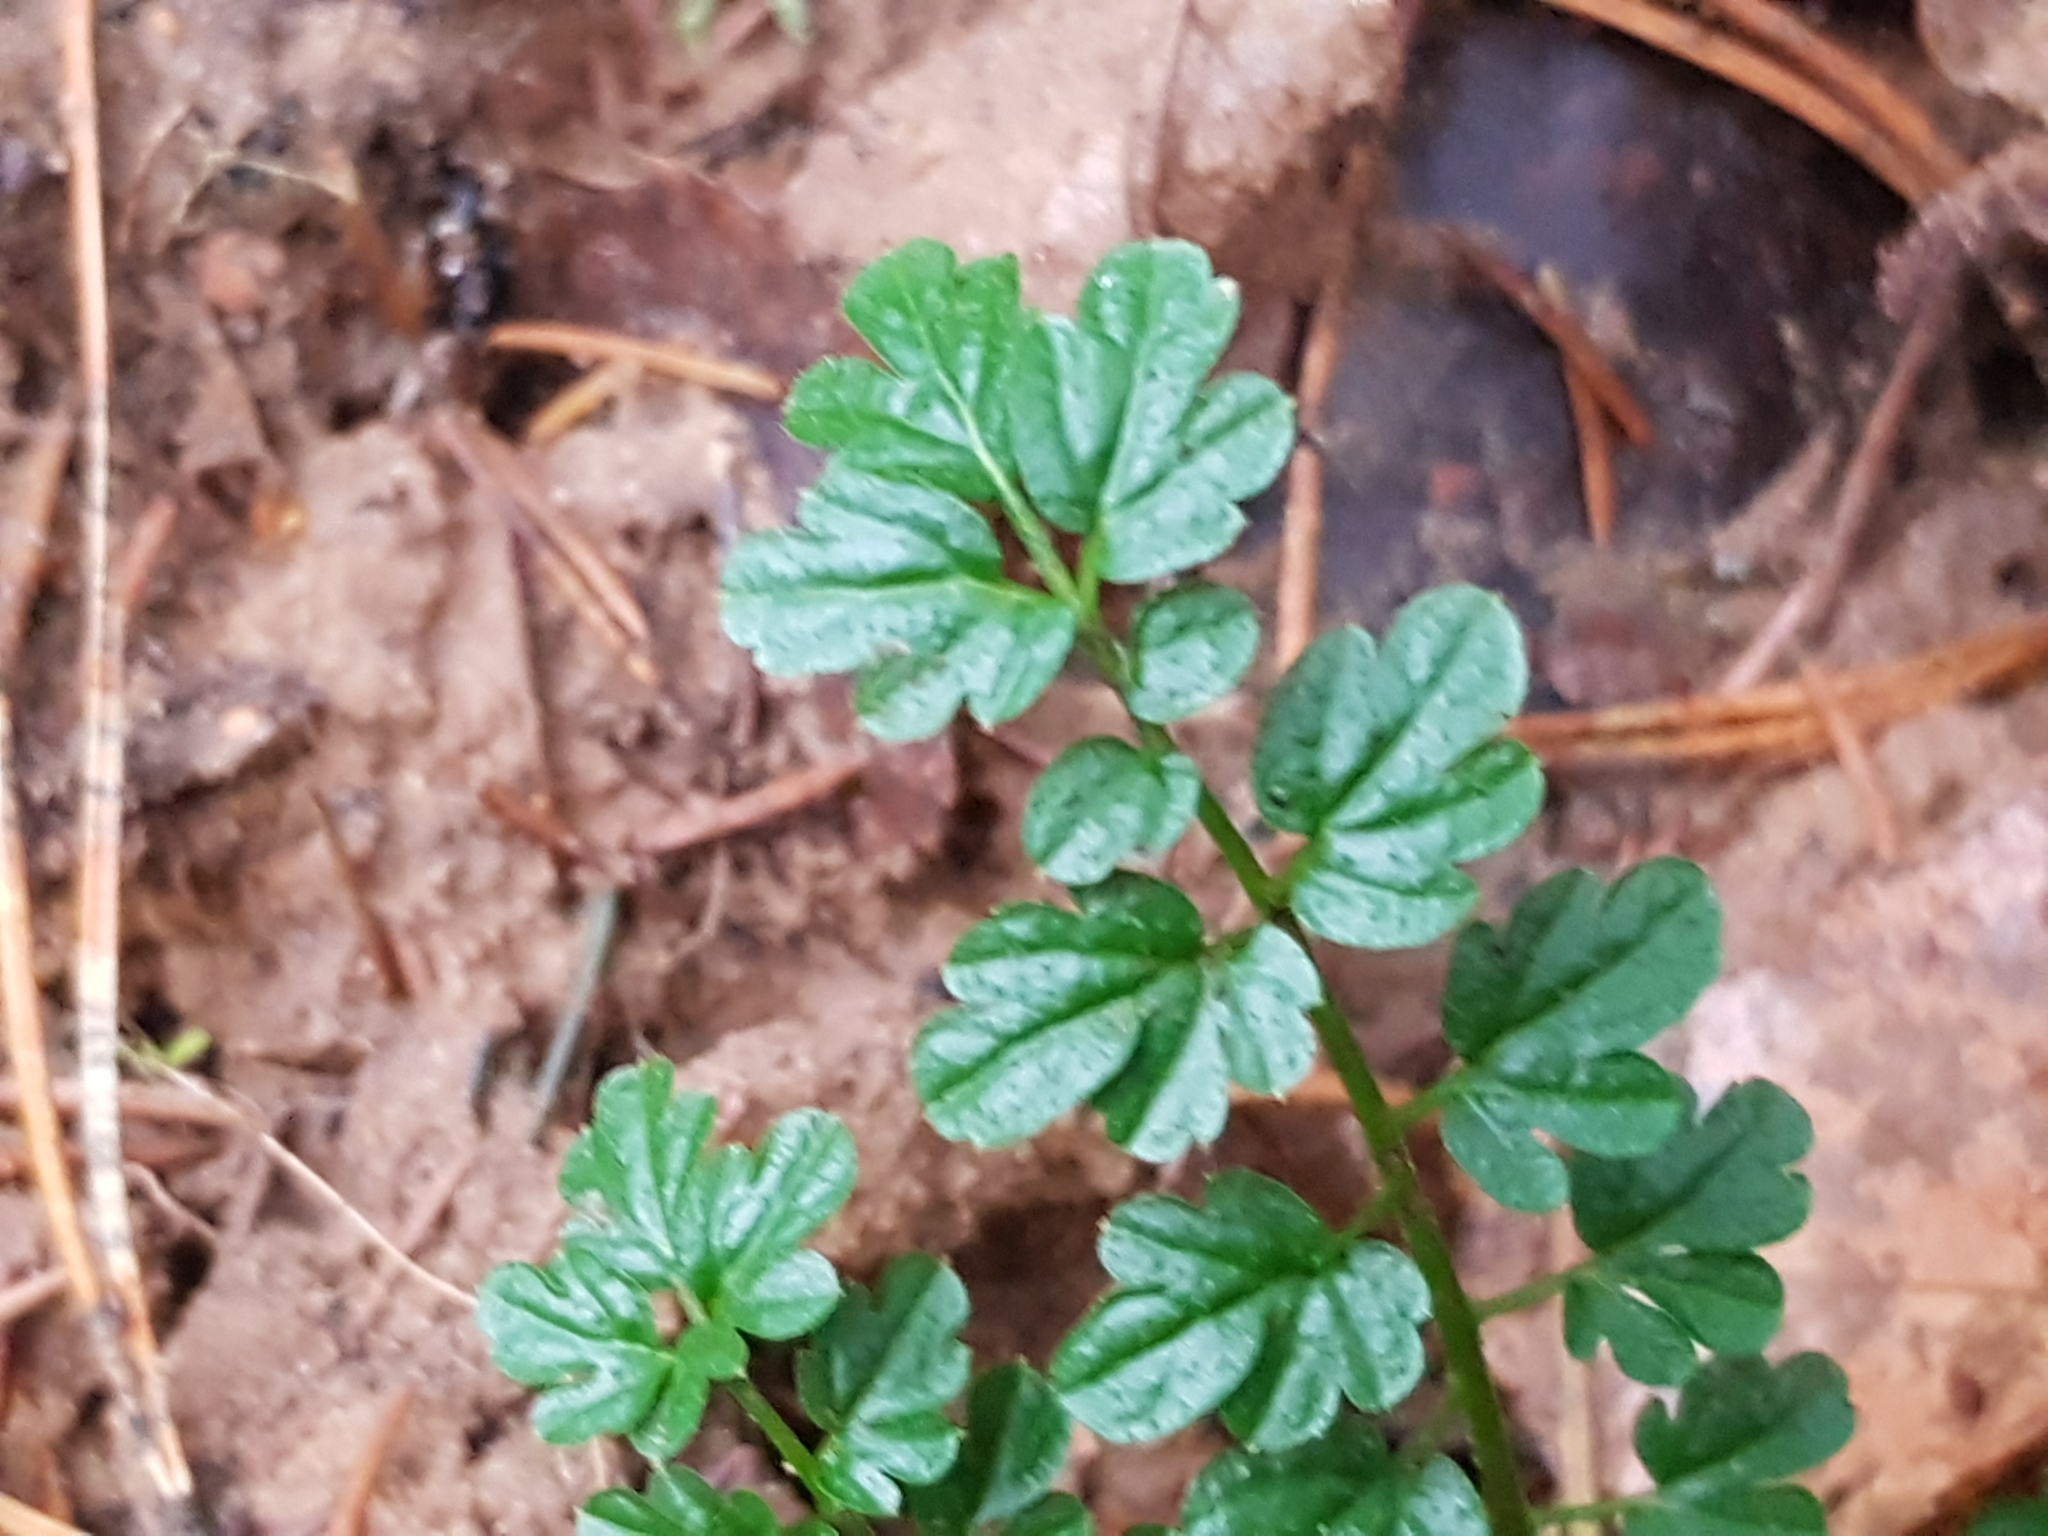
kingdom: Plantae
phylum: Tracheophyta
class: Magnoliopsida
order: Brassicales
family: Brassicaceae
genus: Cardamine
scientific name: Cardamine impatiens
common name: Narrow-leaved bitter-cress
